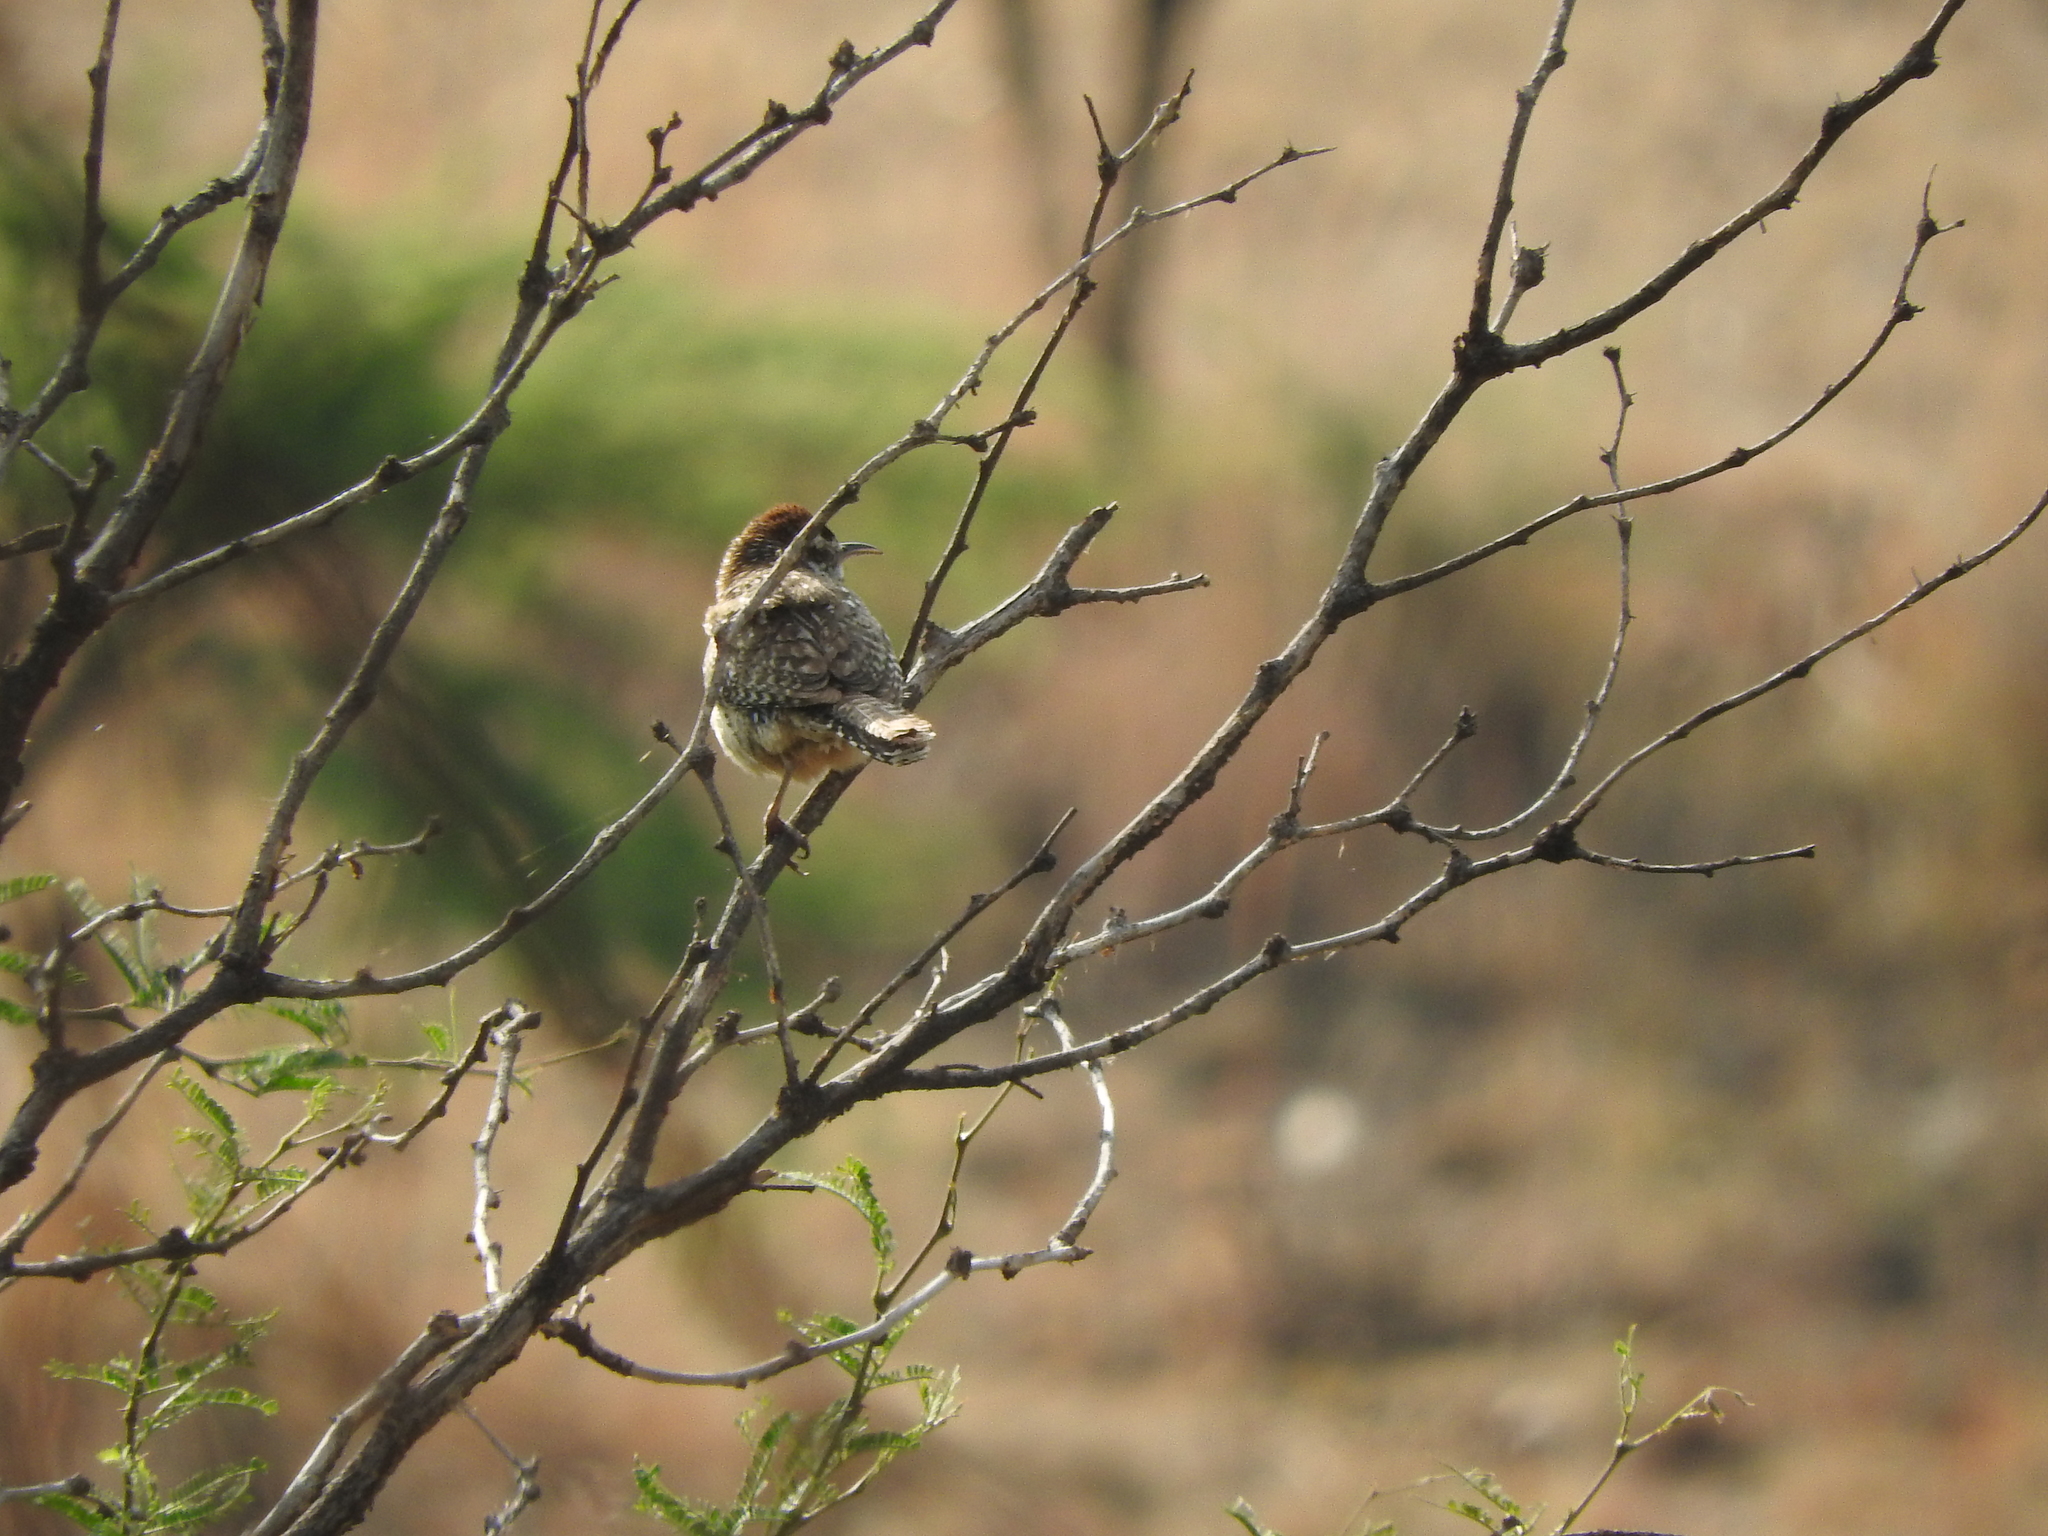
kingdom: Animalia
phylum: Chordata
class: Aves
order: Passeriformes
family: Troglodytidae
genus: Campylorhynchus
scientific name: Campylorhynchus brunneicapillus
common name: Cactus wren
